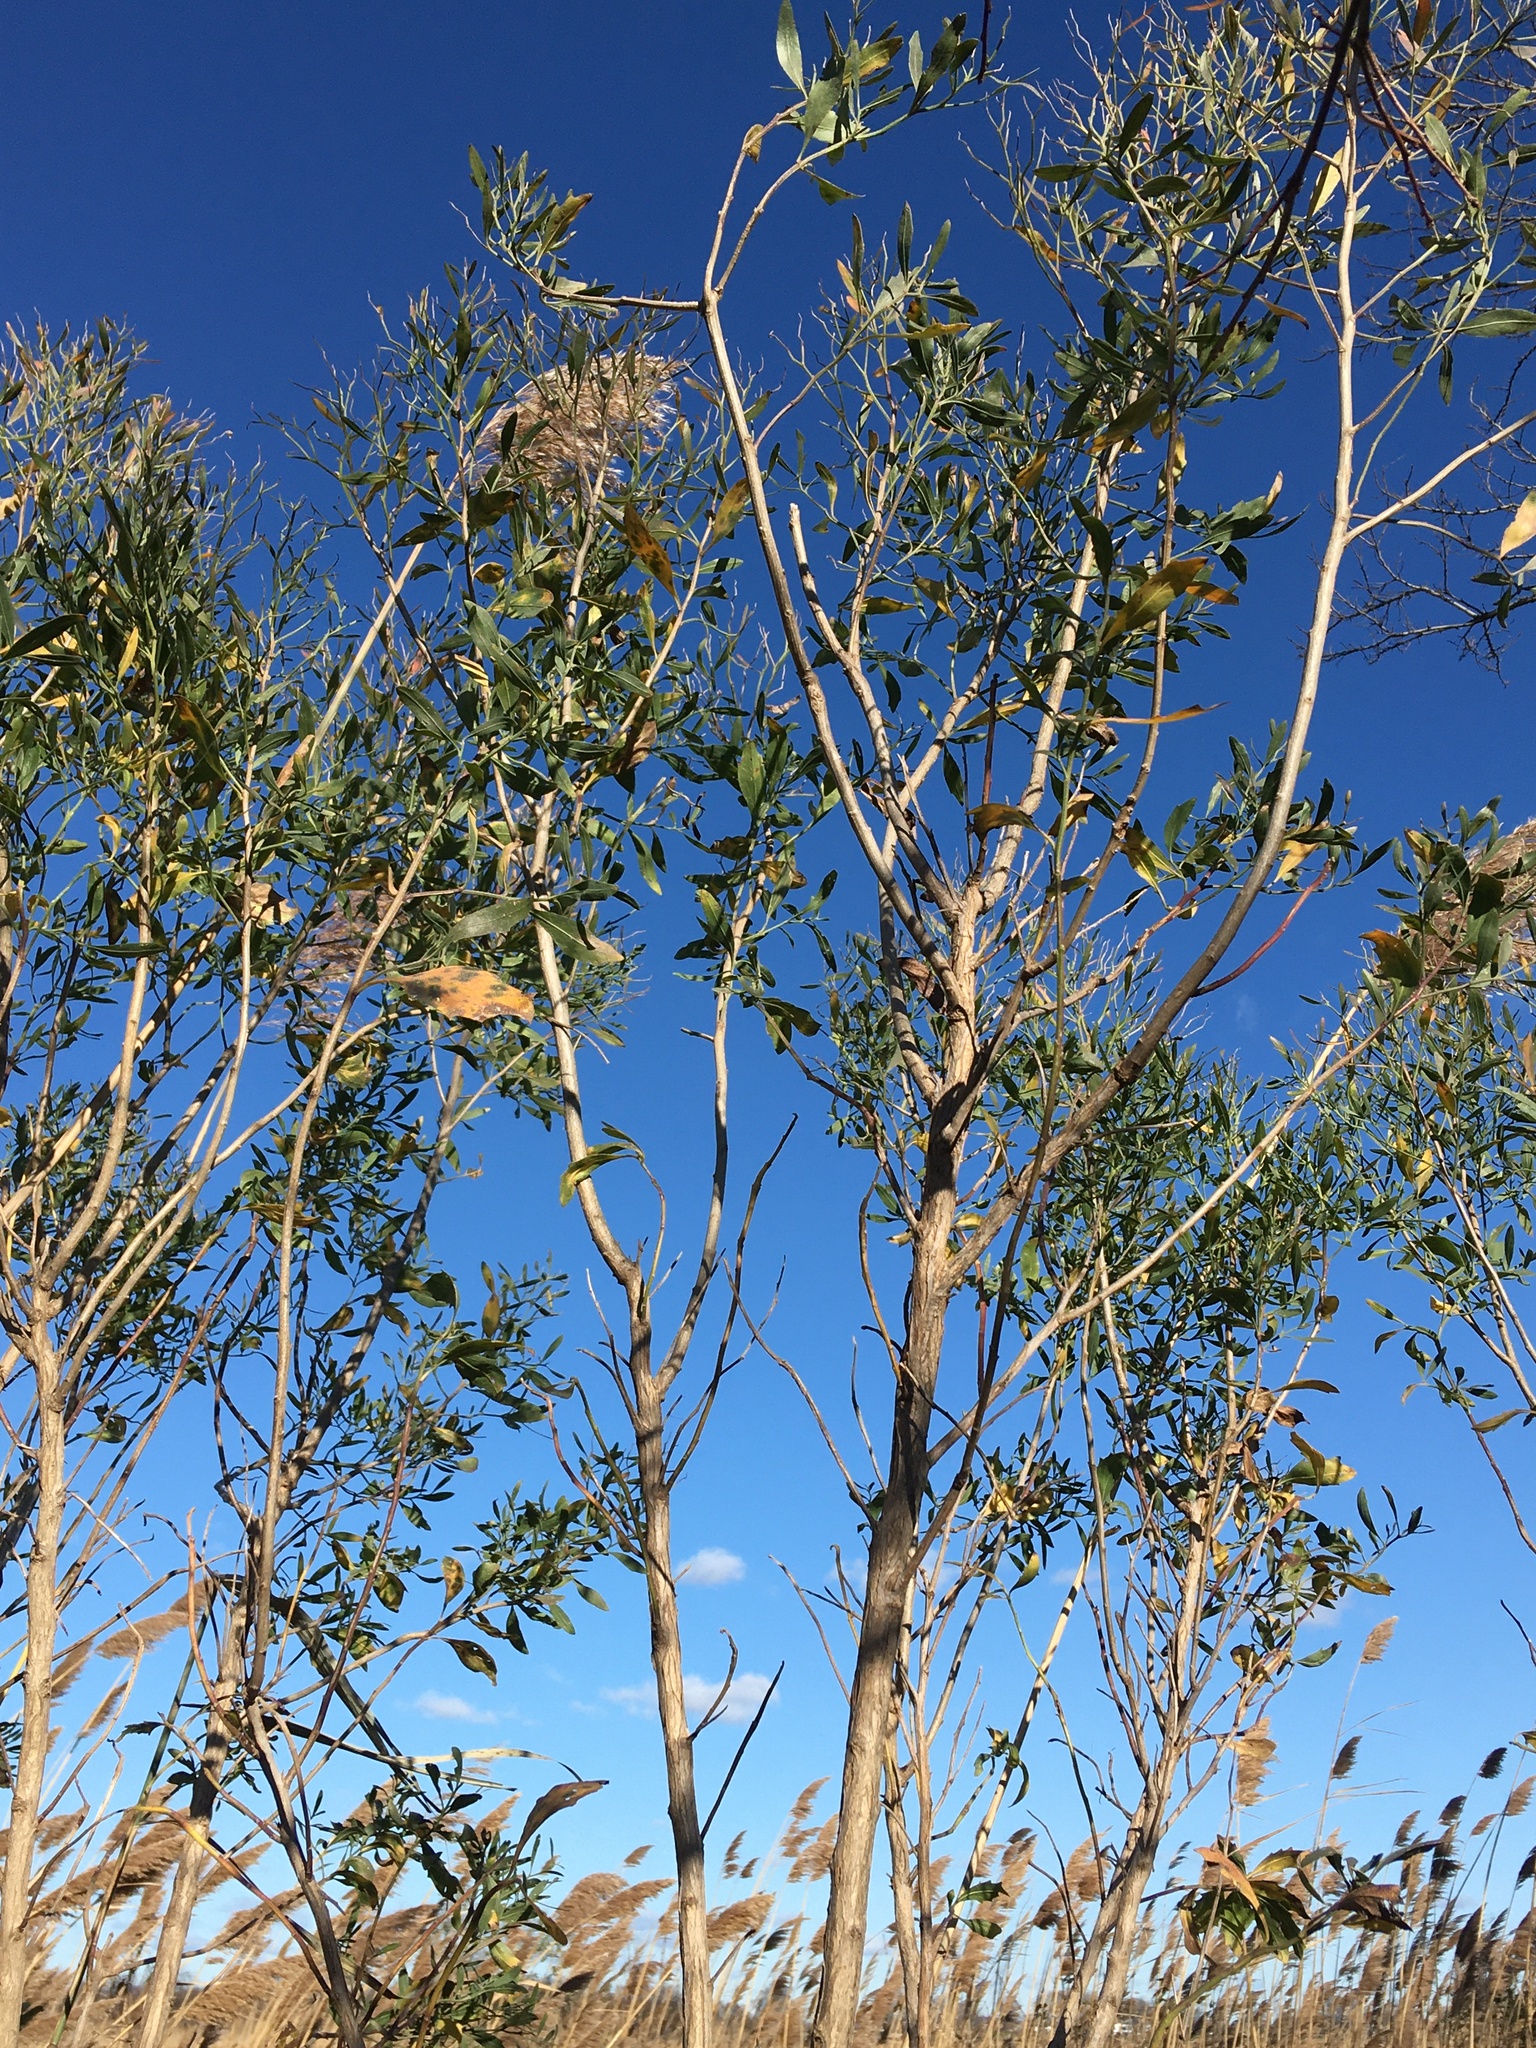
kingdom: Plantae
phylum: Tracheophyta
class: Magnoliopsida
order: Asterales
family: Asteraceae
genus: Baccharis
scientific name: Baccharis halimifolia
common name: Eastern baccharis
